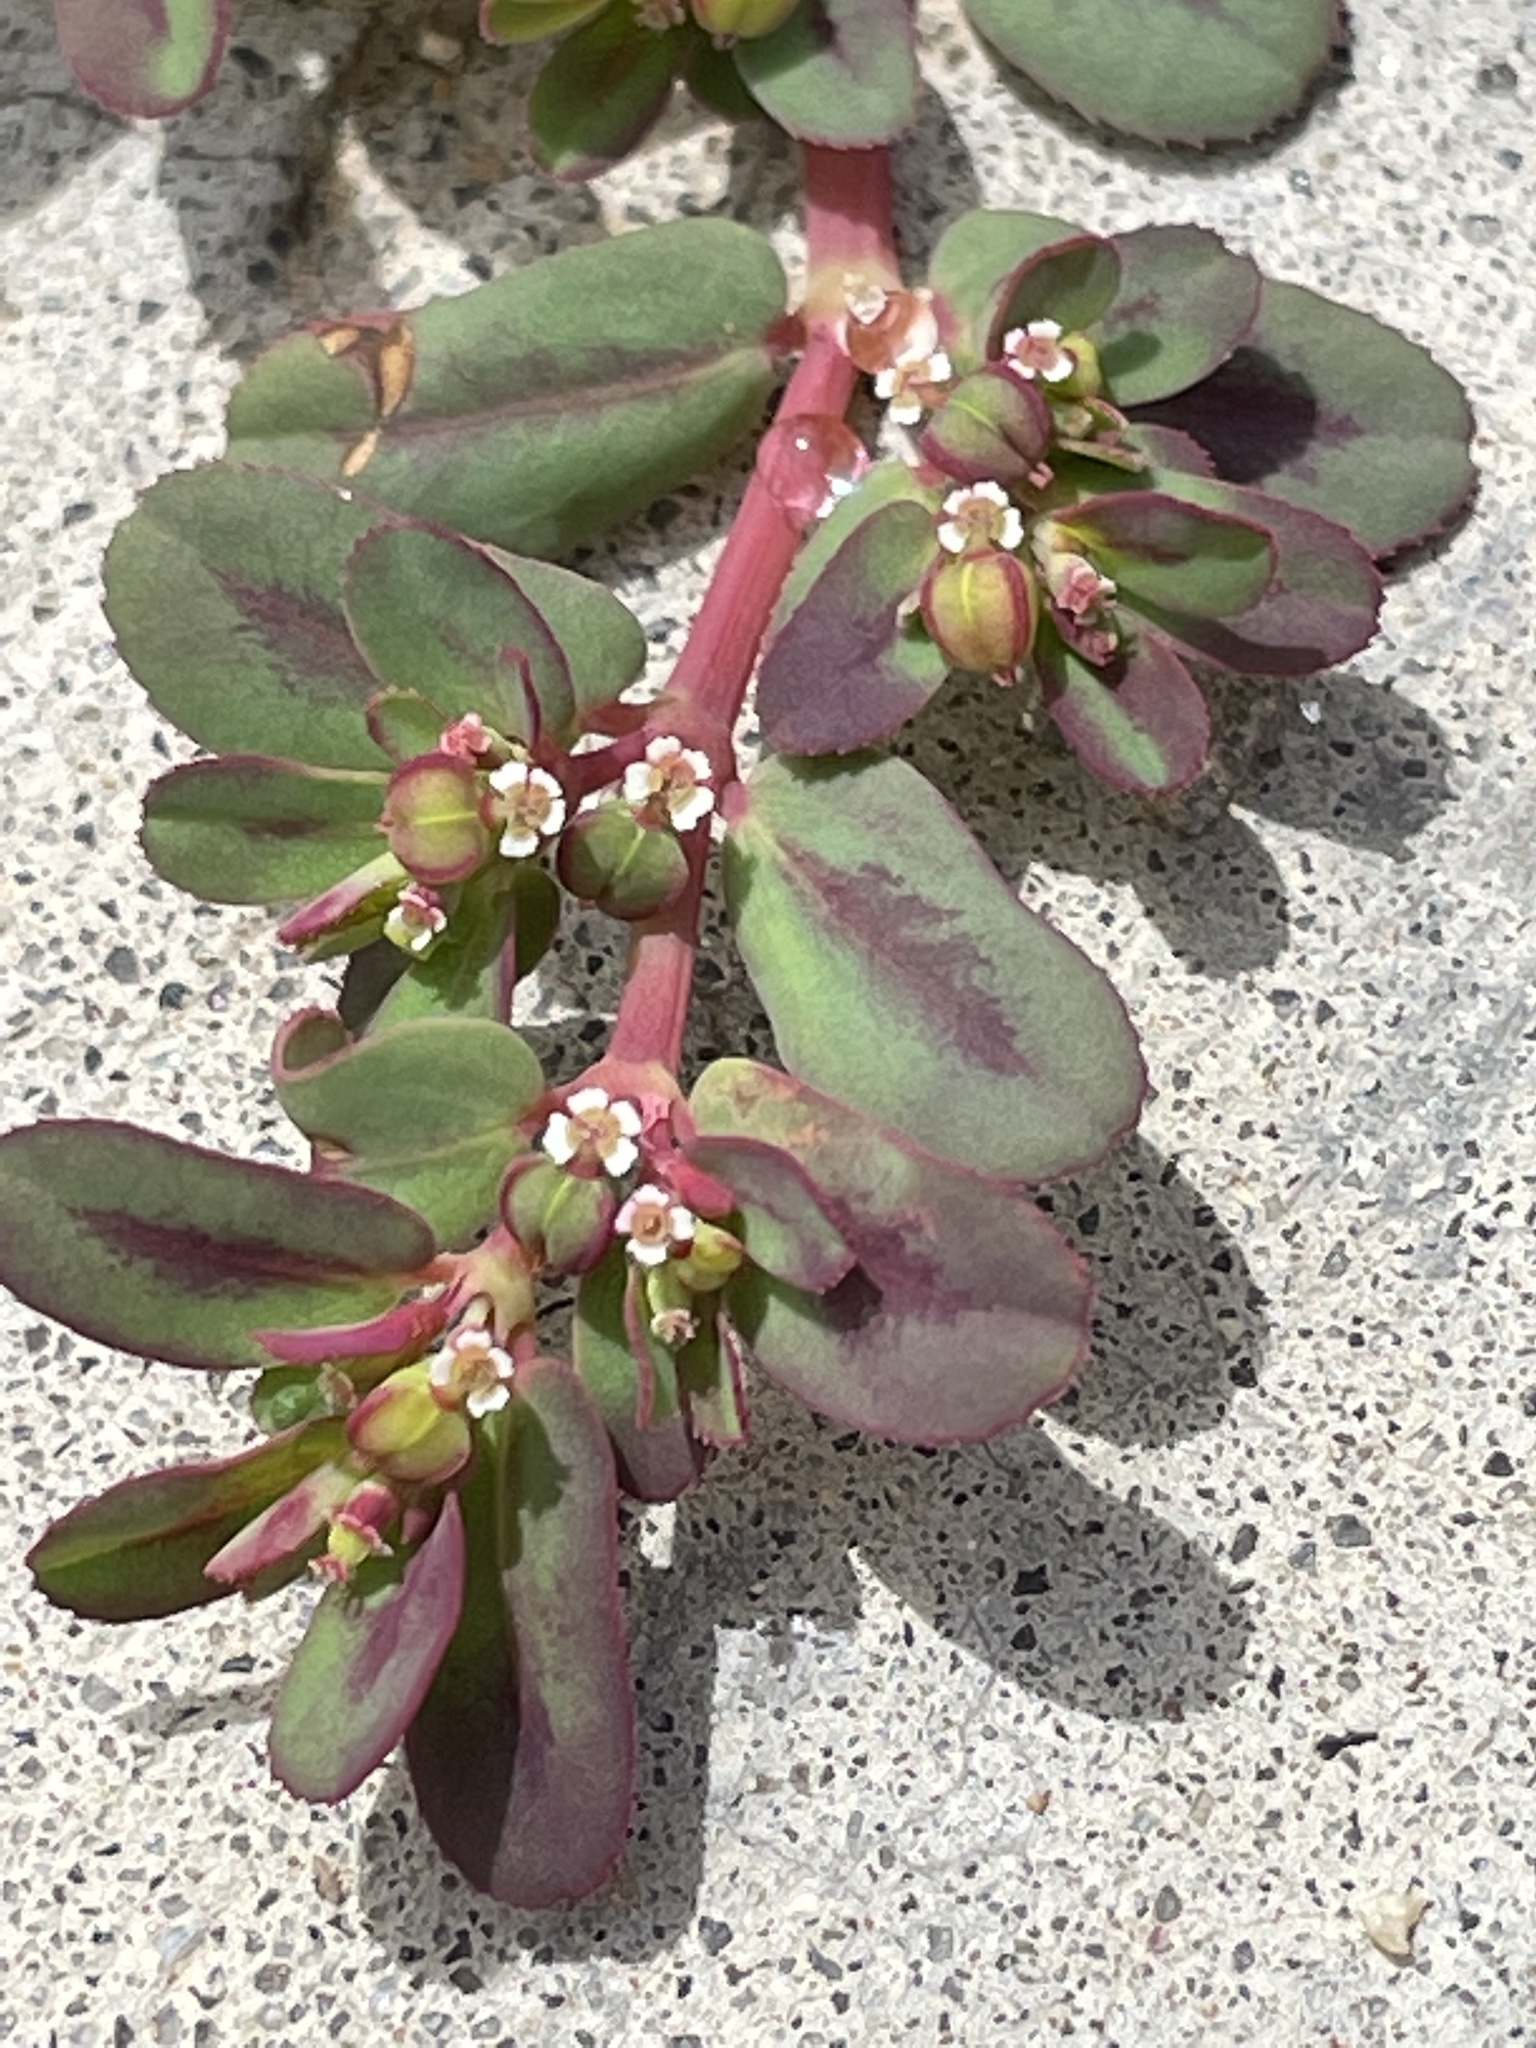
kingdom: Plantae
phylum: Tracheophyta
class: Magnoliopsida
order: Malpighiales
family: Euphorbiaceae
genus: Euphorbia
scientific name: Euphorbia serpillifolia
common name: Thyme-leaf spurge
